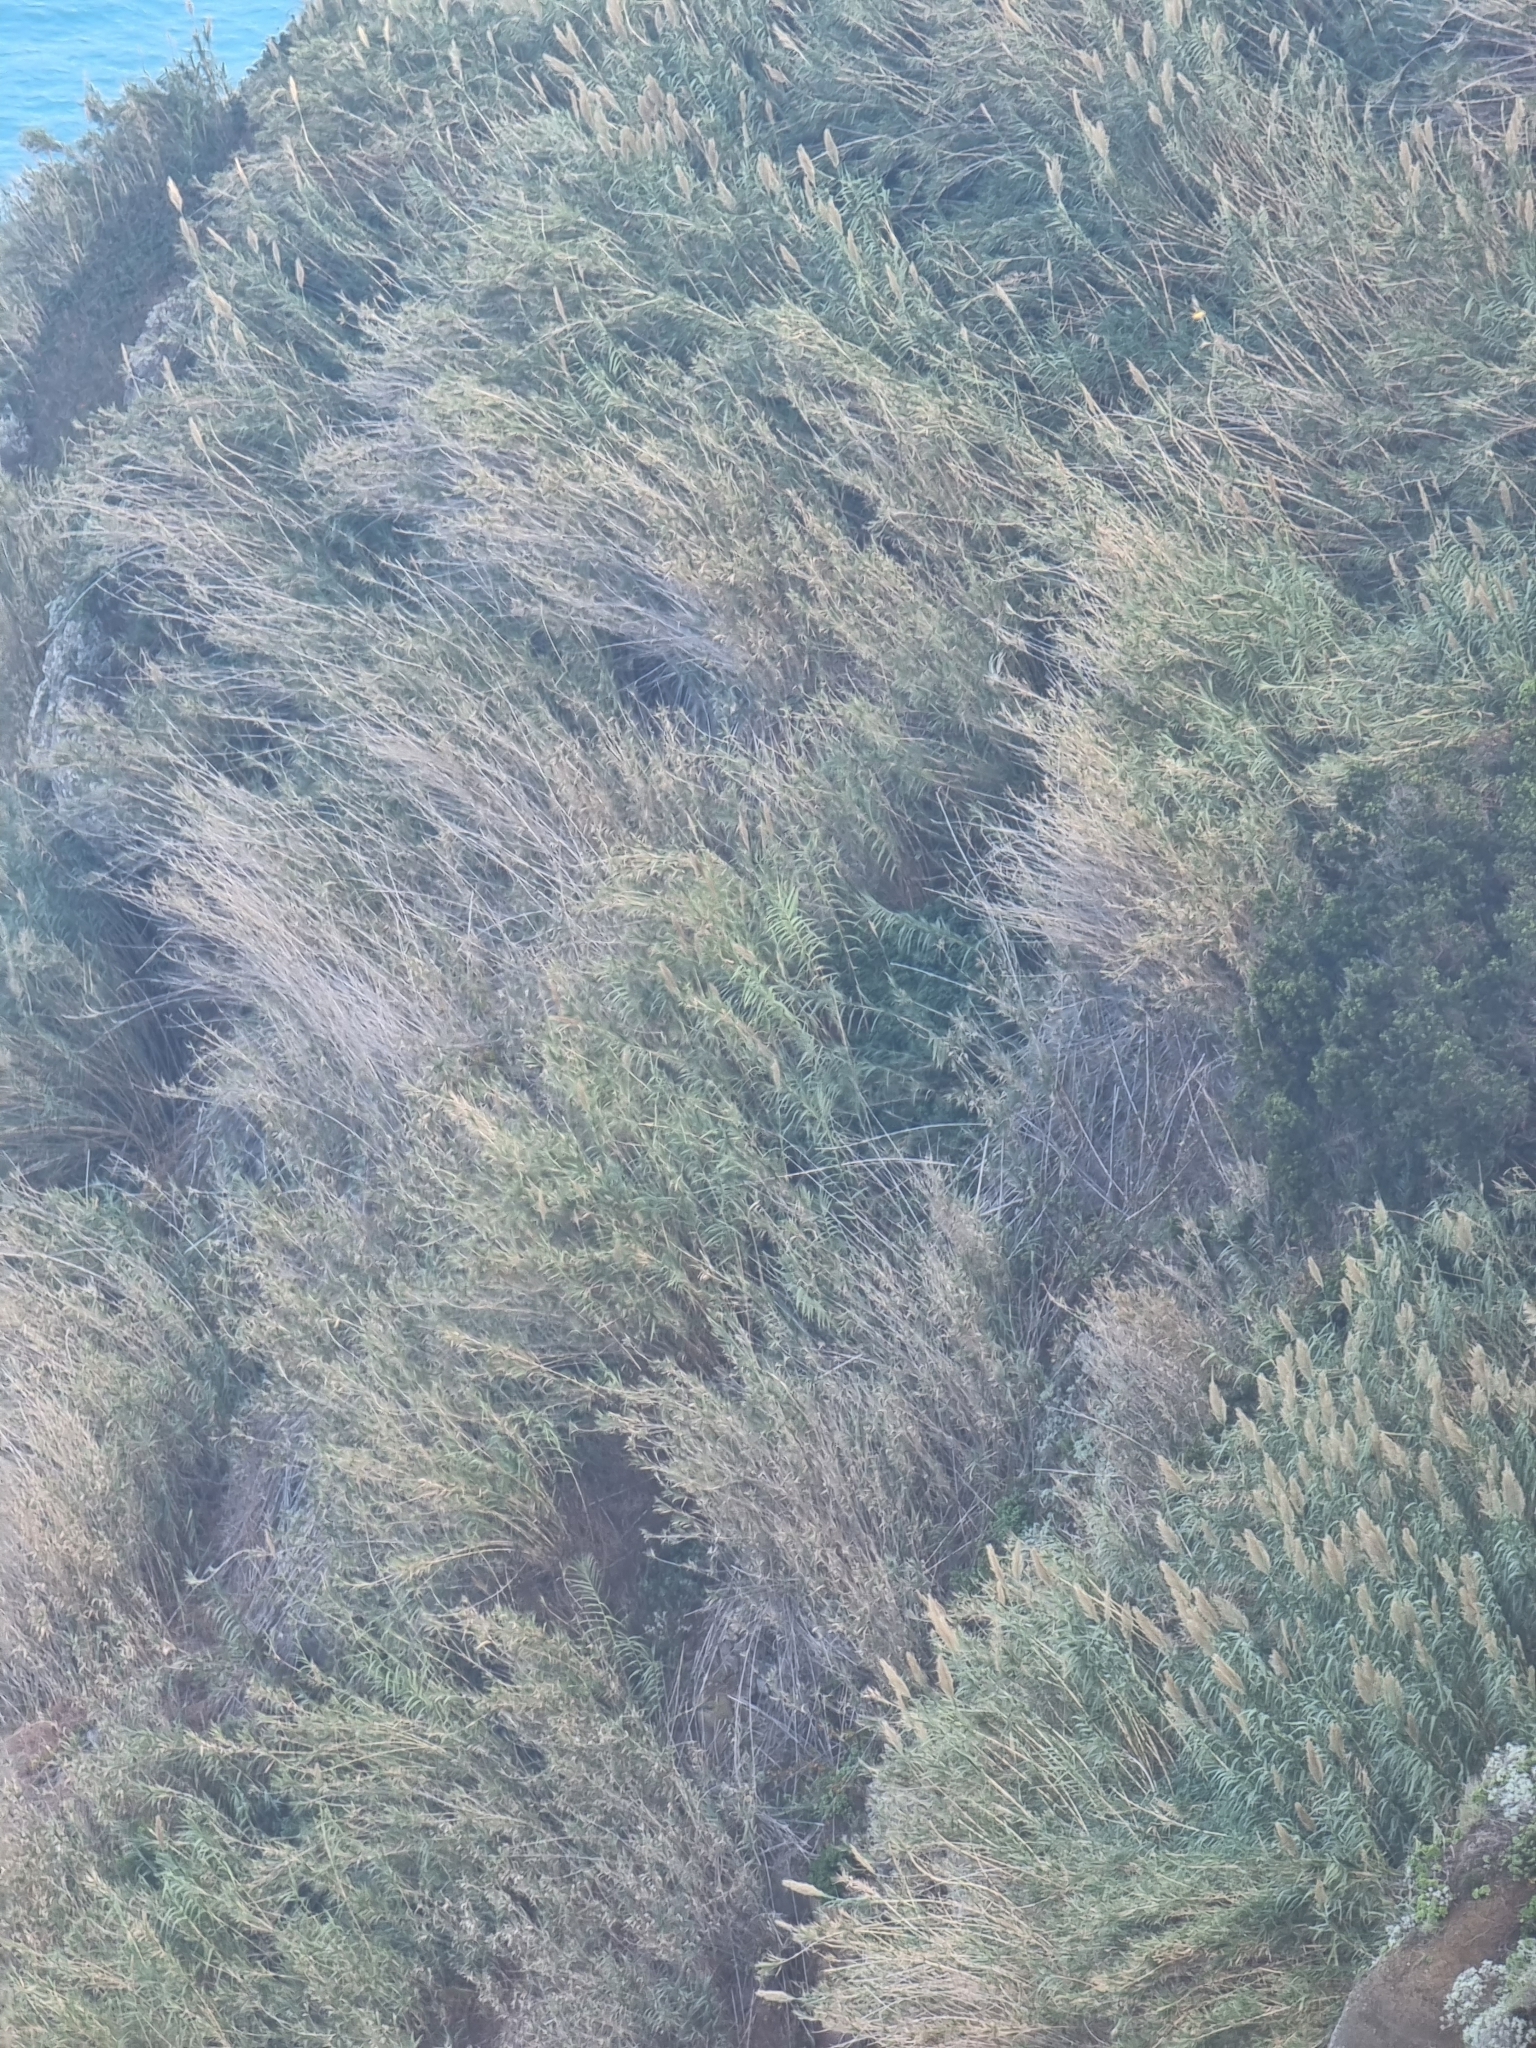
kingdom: Plantae
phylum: Tracheophyta
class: Liliopsida
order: Poales
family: Poaceae
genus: Arundo
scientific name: Arundo donax
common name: Giant reed
